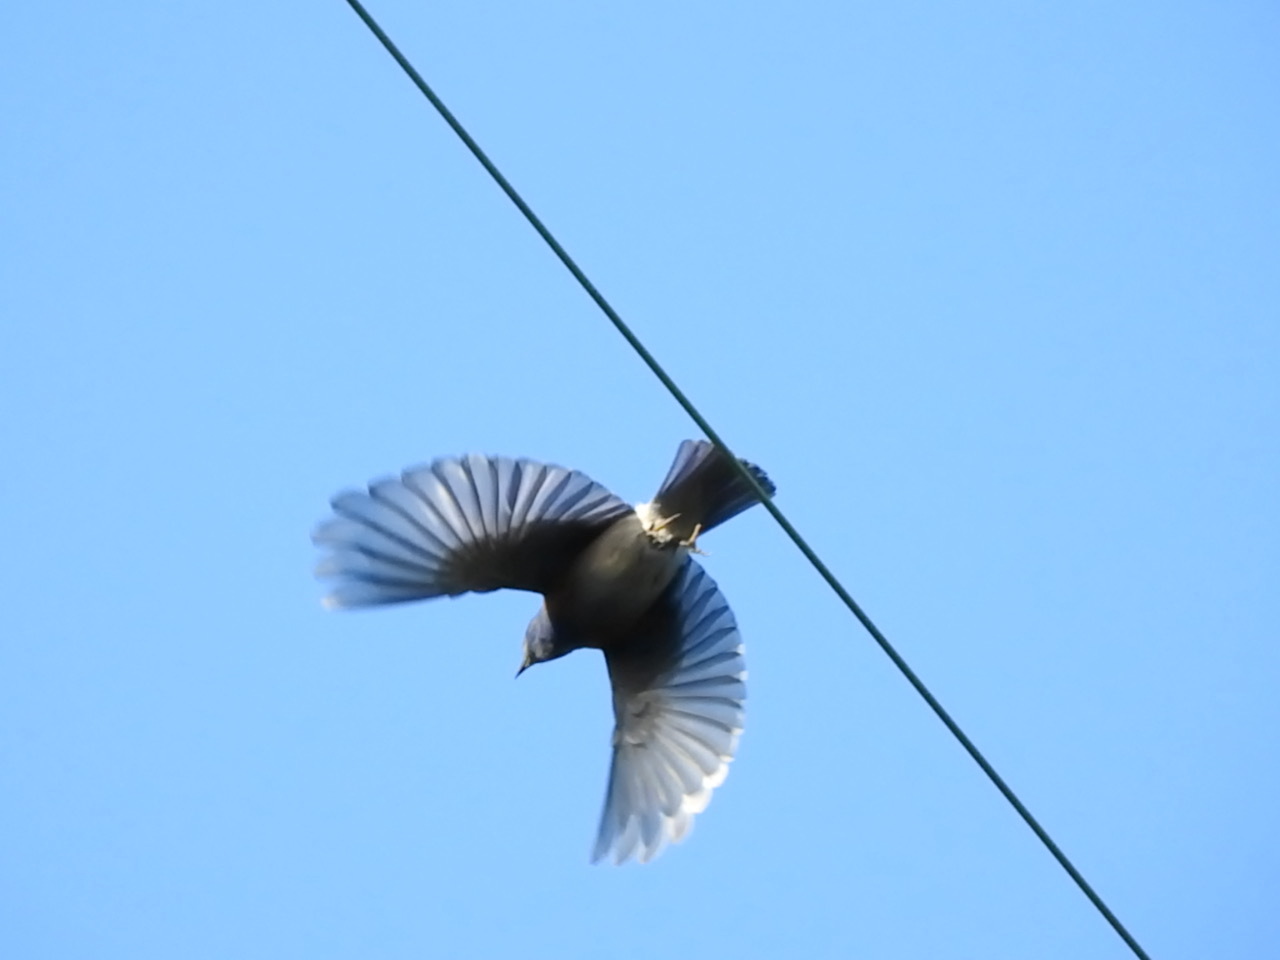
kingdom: Animalia
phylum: Chordata
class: Aves
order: Passeriformes
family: Turdidae
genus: Sialia
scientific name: Sialia mexicana
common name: Western bluebird
